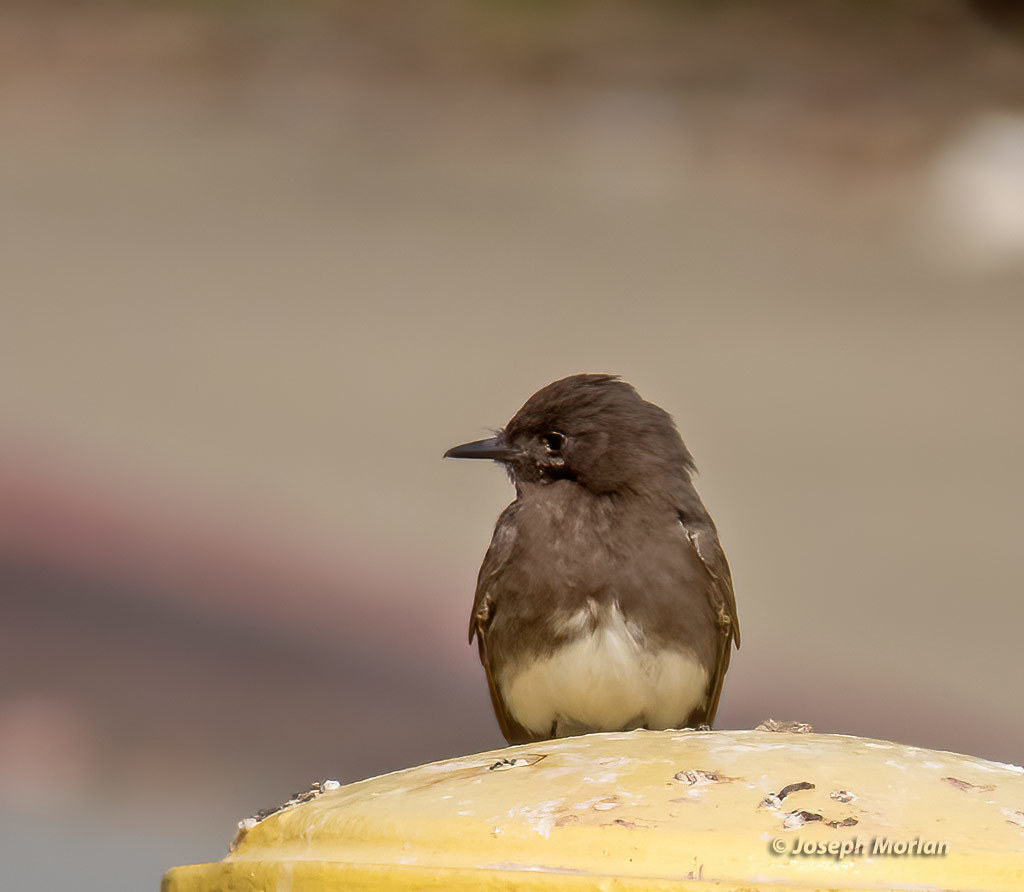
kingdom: Animalia
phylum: Chordata
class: Aves
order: Passeriformes
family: Tyrannidae
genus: Sayornis
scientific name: Sayornis nigricans
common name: Black phoebe
